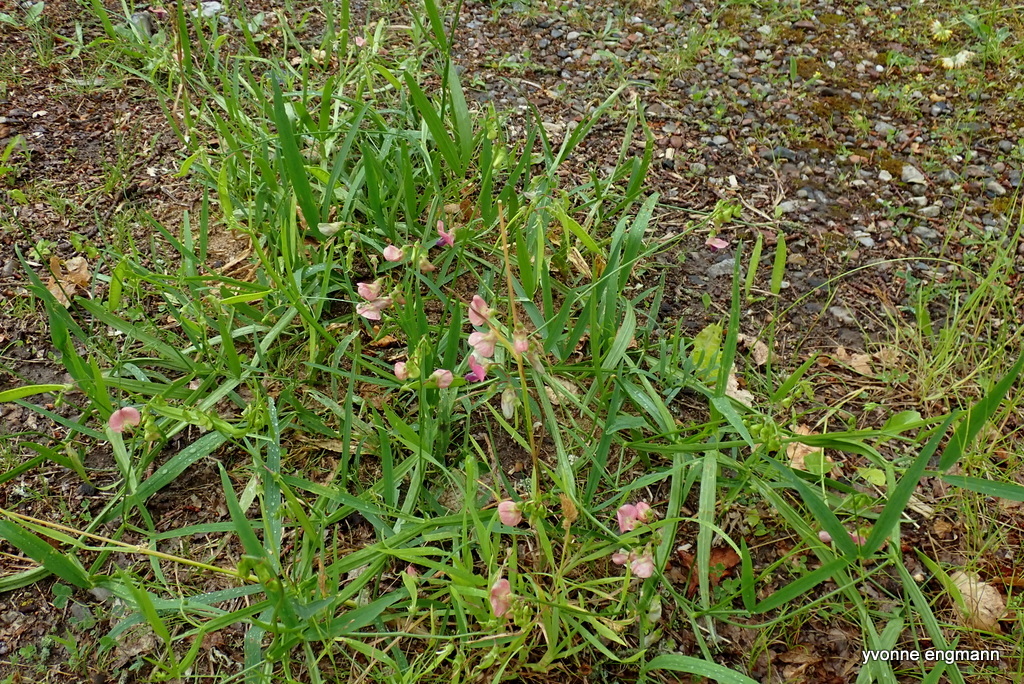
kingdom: Plantae
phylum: Tracheophyta
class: Magnoliopsida
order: Fabales
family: Fabaceae
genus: Lathyrus
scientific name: Lathyrus sylvestris
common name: Flat pea
